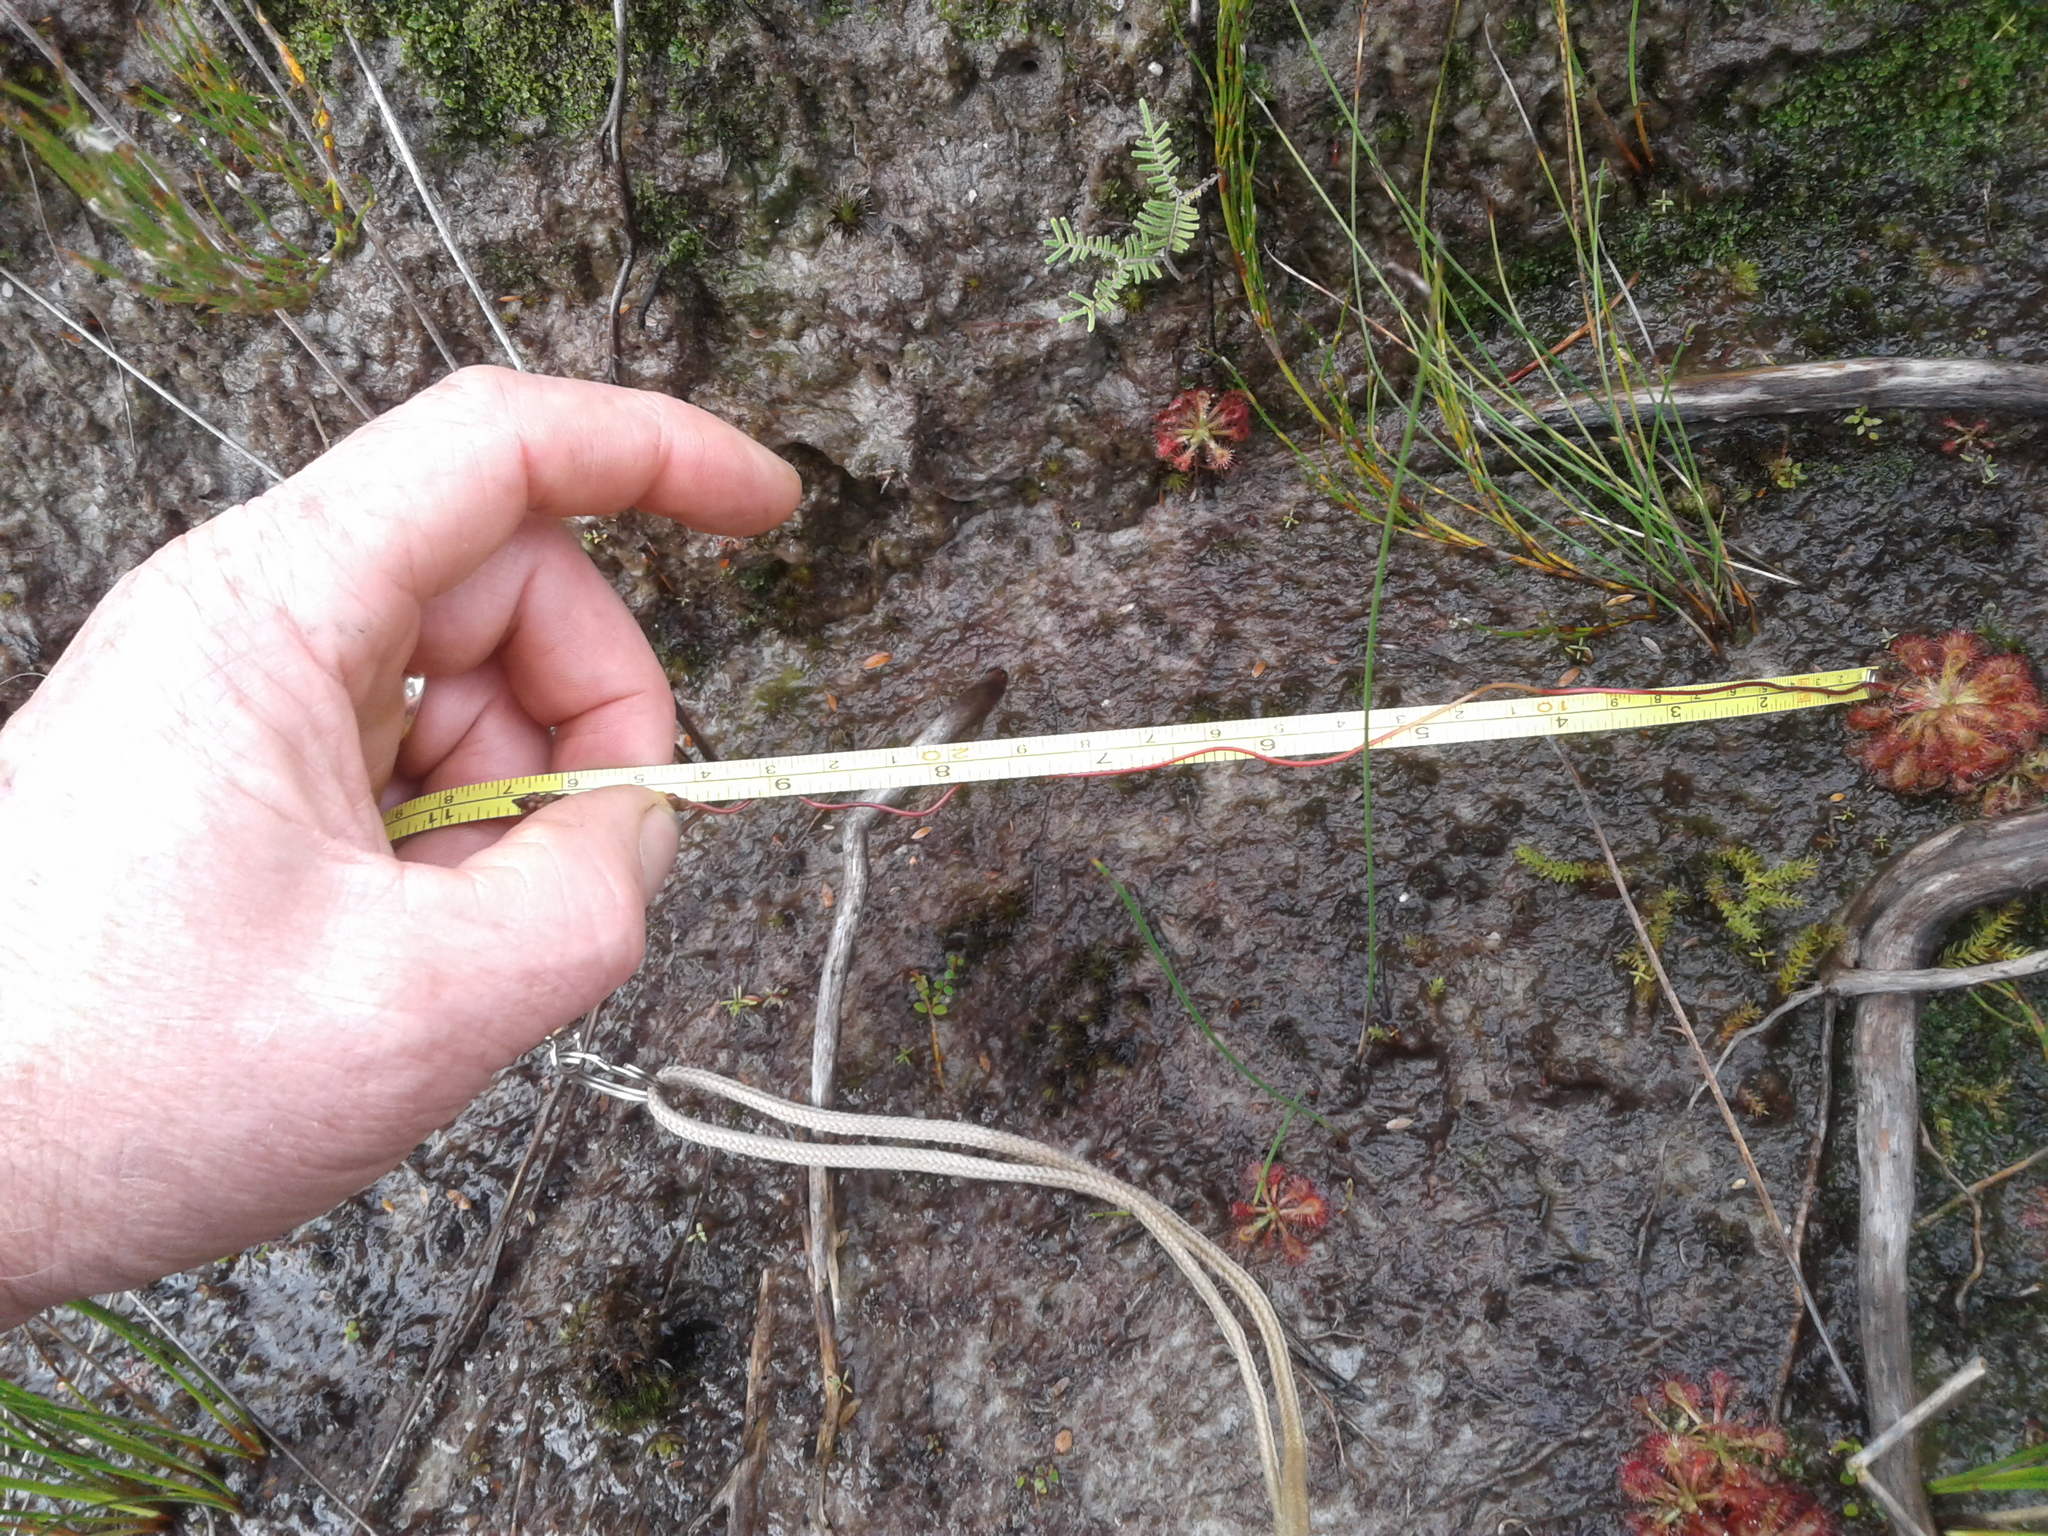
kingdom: Plantae
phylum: Tracheophyta
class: Magnoliopsida
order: Caryophyllales
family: Droseraceae
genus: Drosera
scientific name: Drosera spatulata
